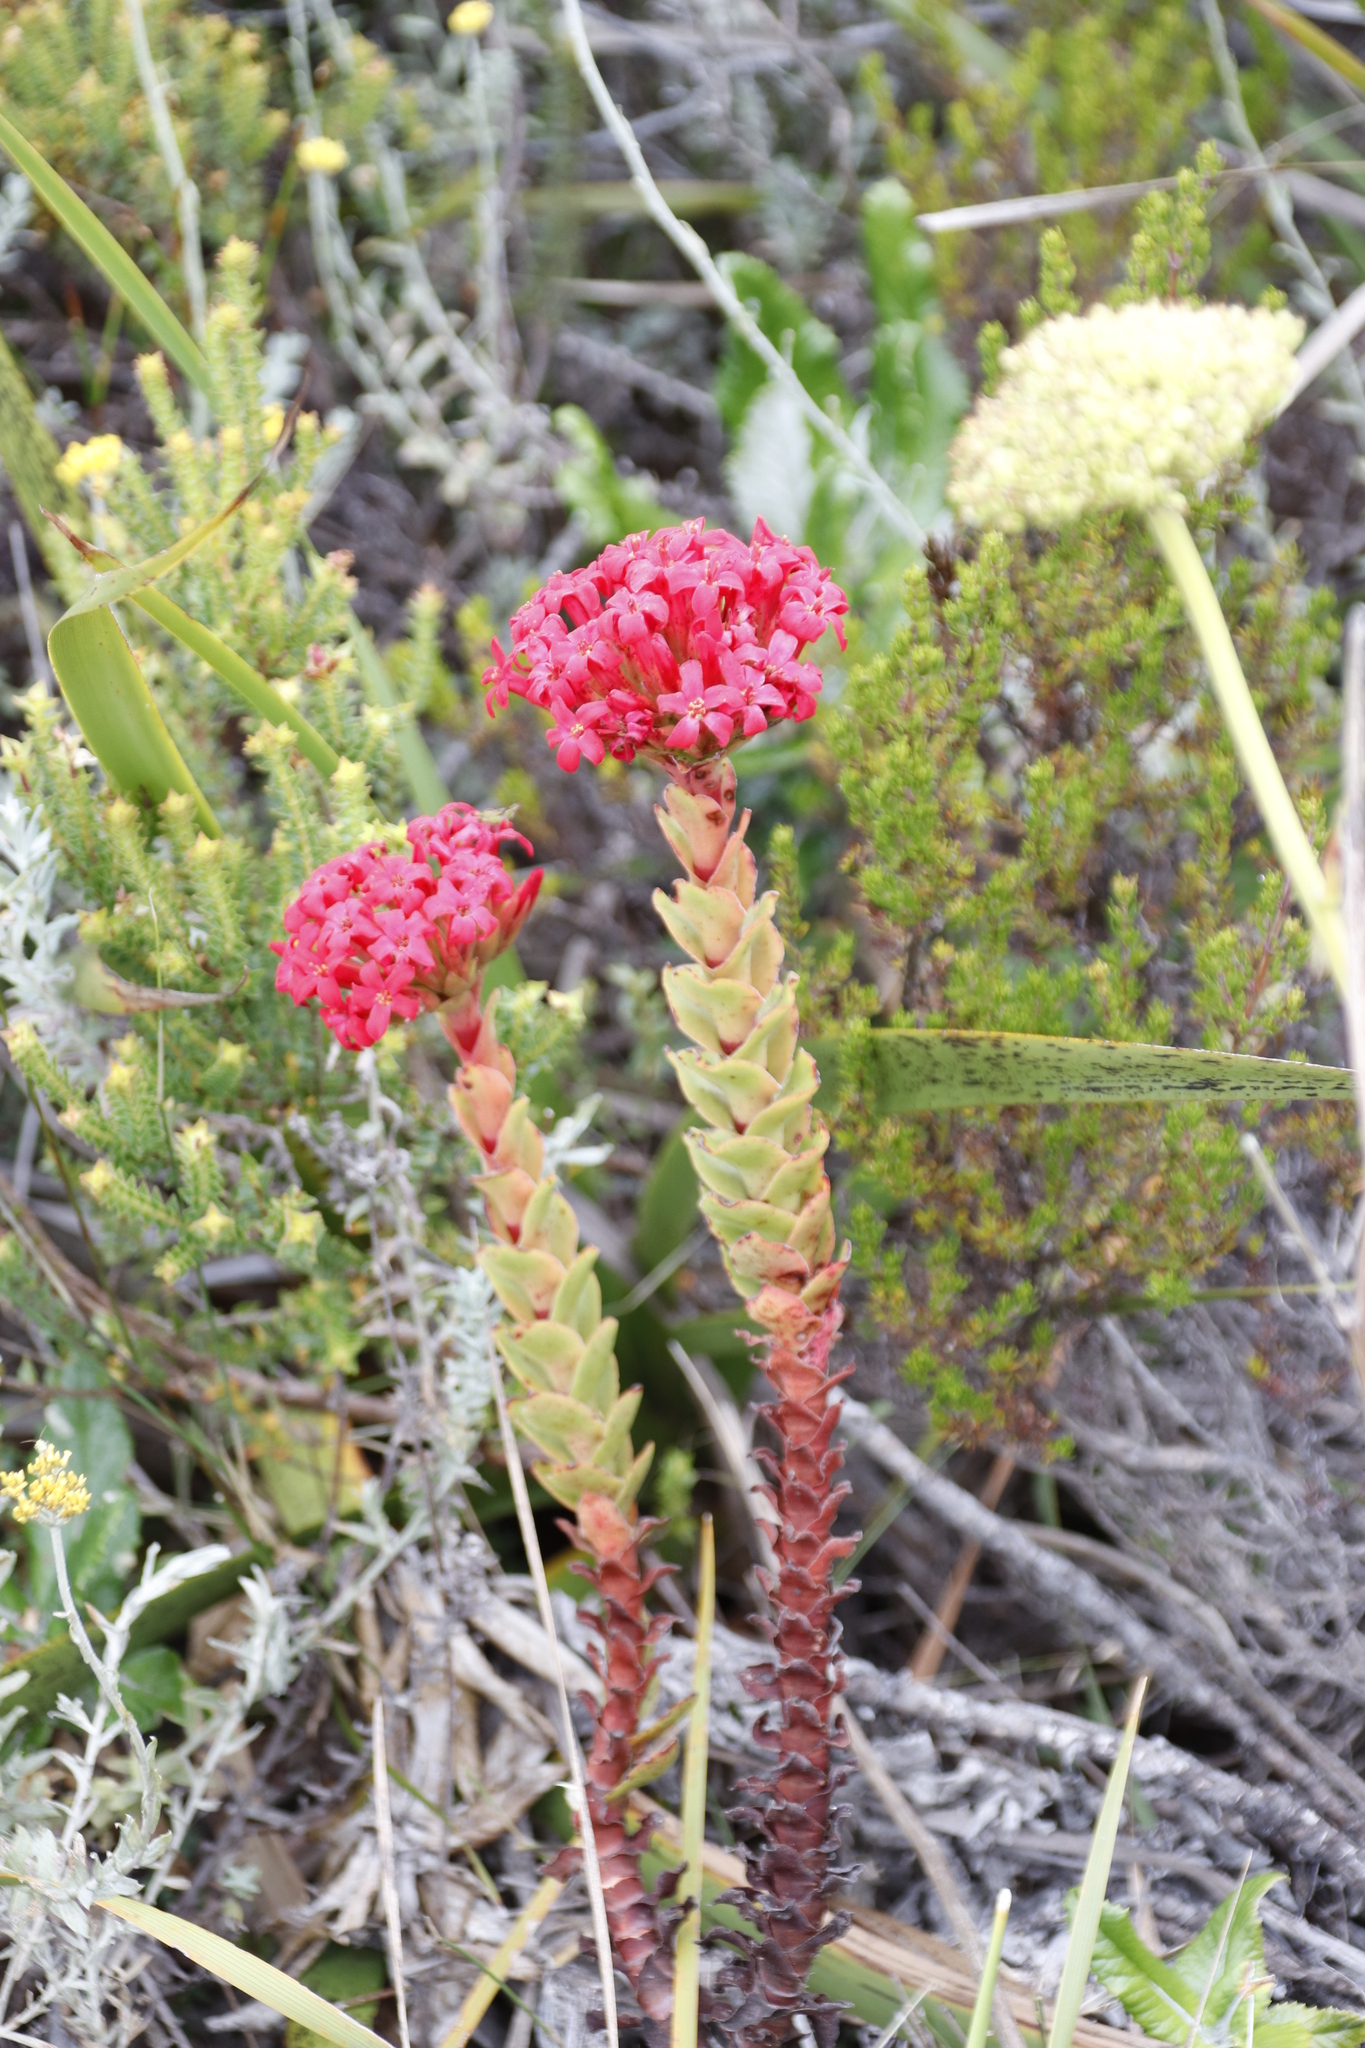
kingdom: Plantae
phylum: Tracheophyta
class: Magnoliopsida
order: Saxifragales
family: Crassulaceae
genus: Crassula
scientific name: Crassula coccinea
